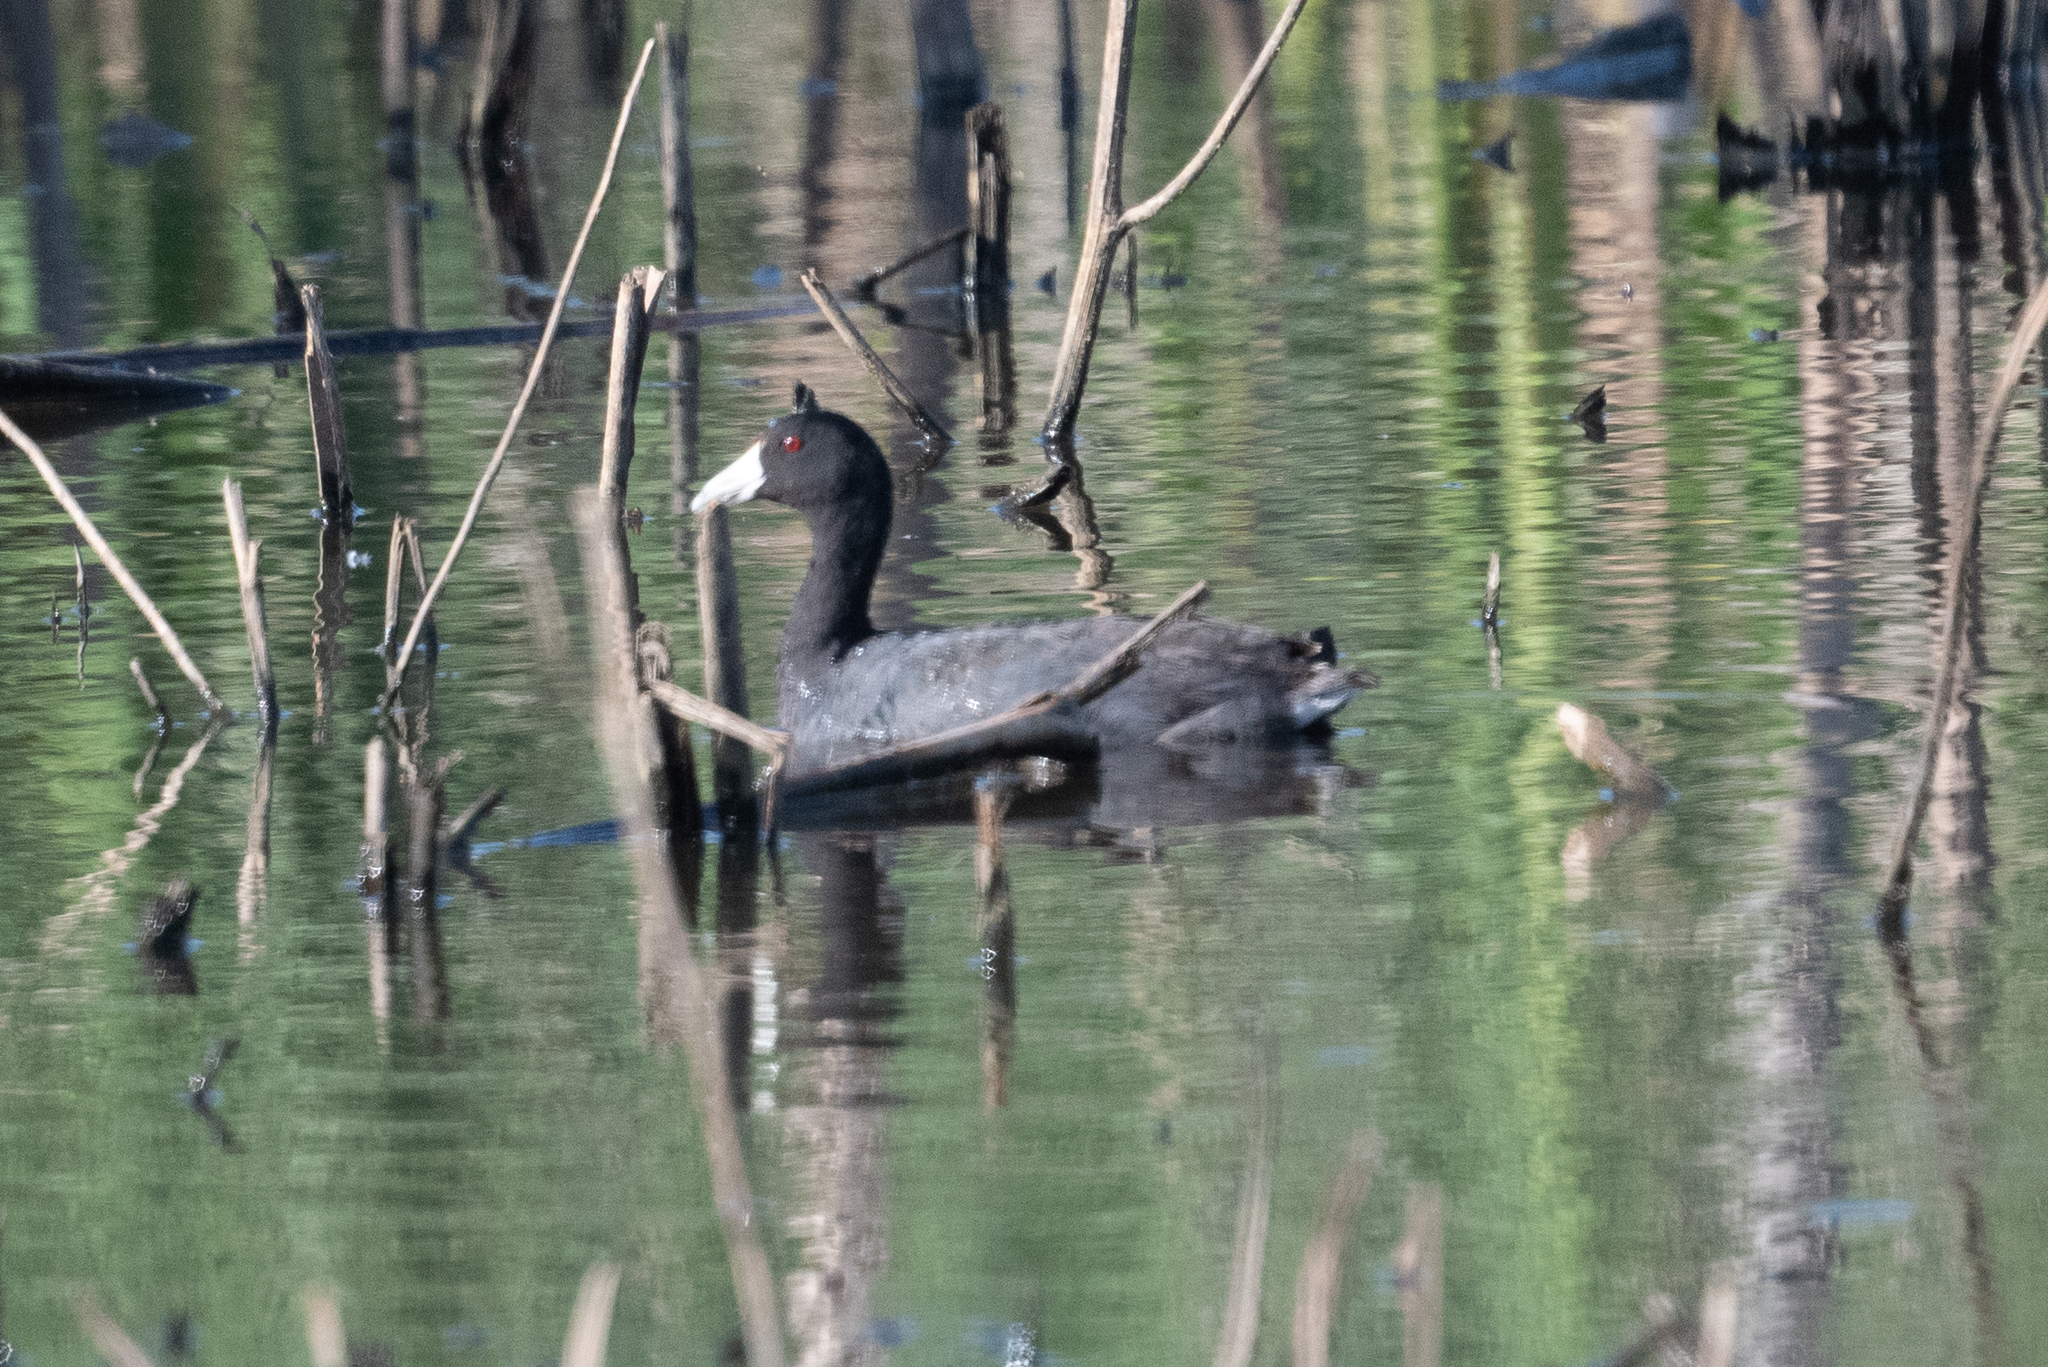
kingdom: Animalia
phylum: Chordata
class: Aves
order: Gruiformes
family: Rallidae
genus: Fulica
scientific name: Fulica americana
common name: American coot
